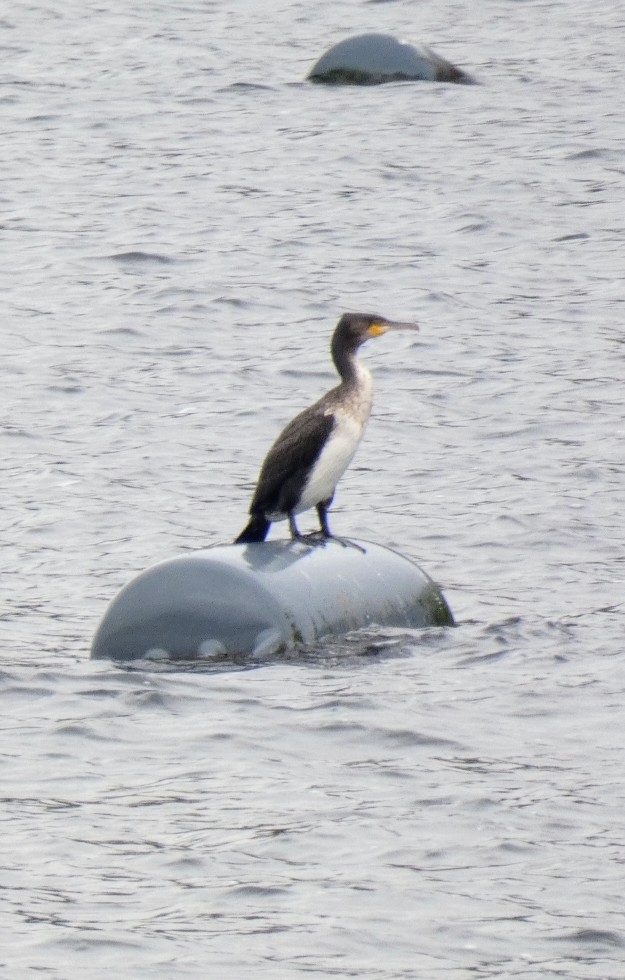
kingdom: Animalia
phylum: Chordata
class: Aves
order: Suliformes
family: Phalacrocoracidae
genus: Phalacrocorax
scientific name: Phalacrocorax carbo
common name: Great cormorant
